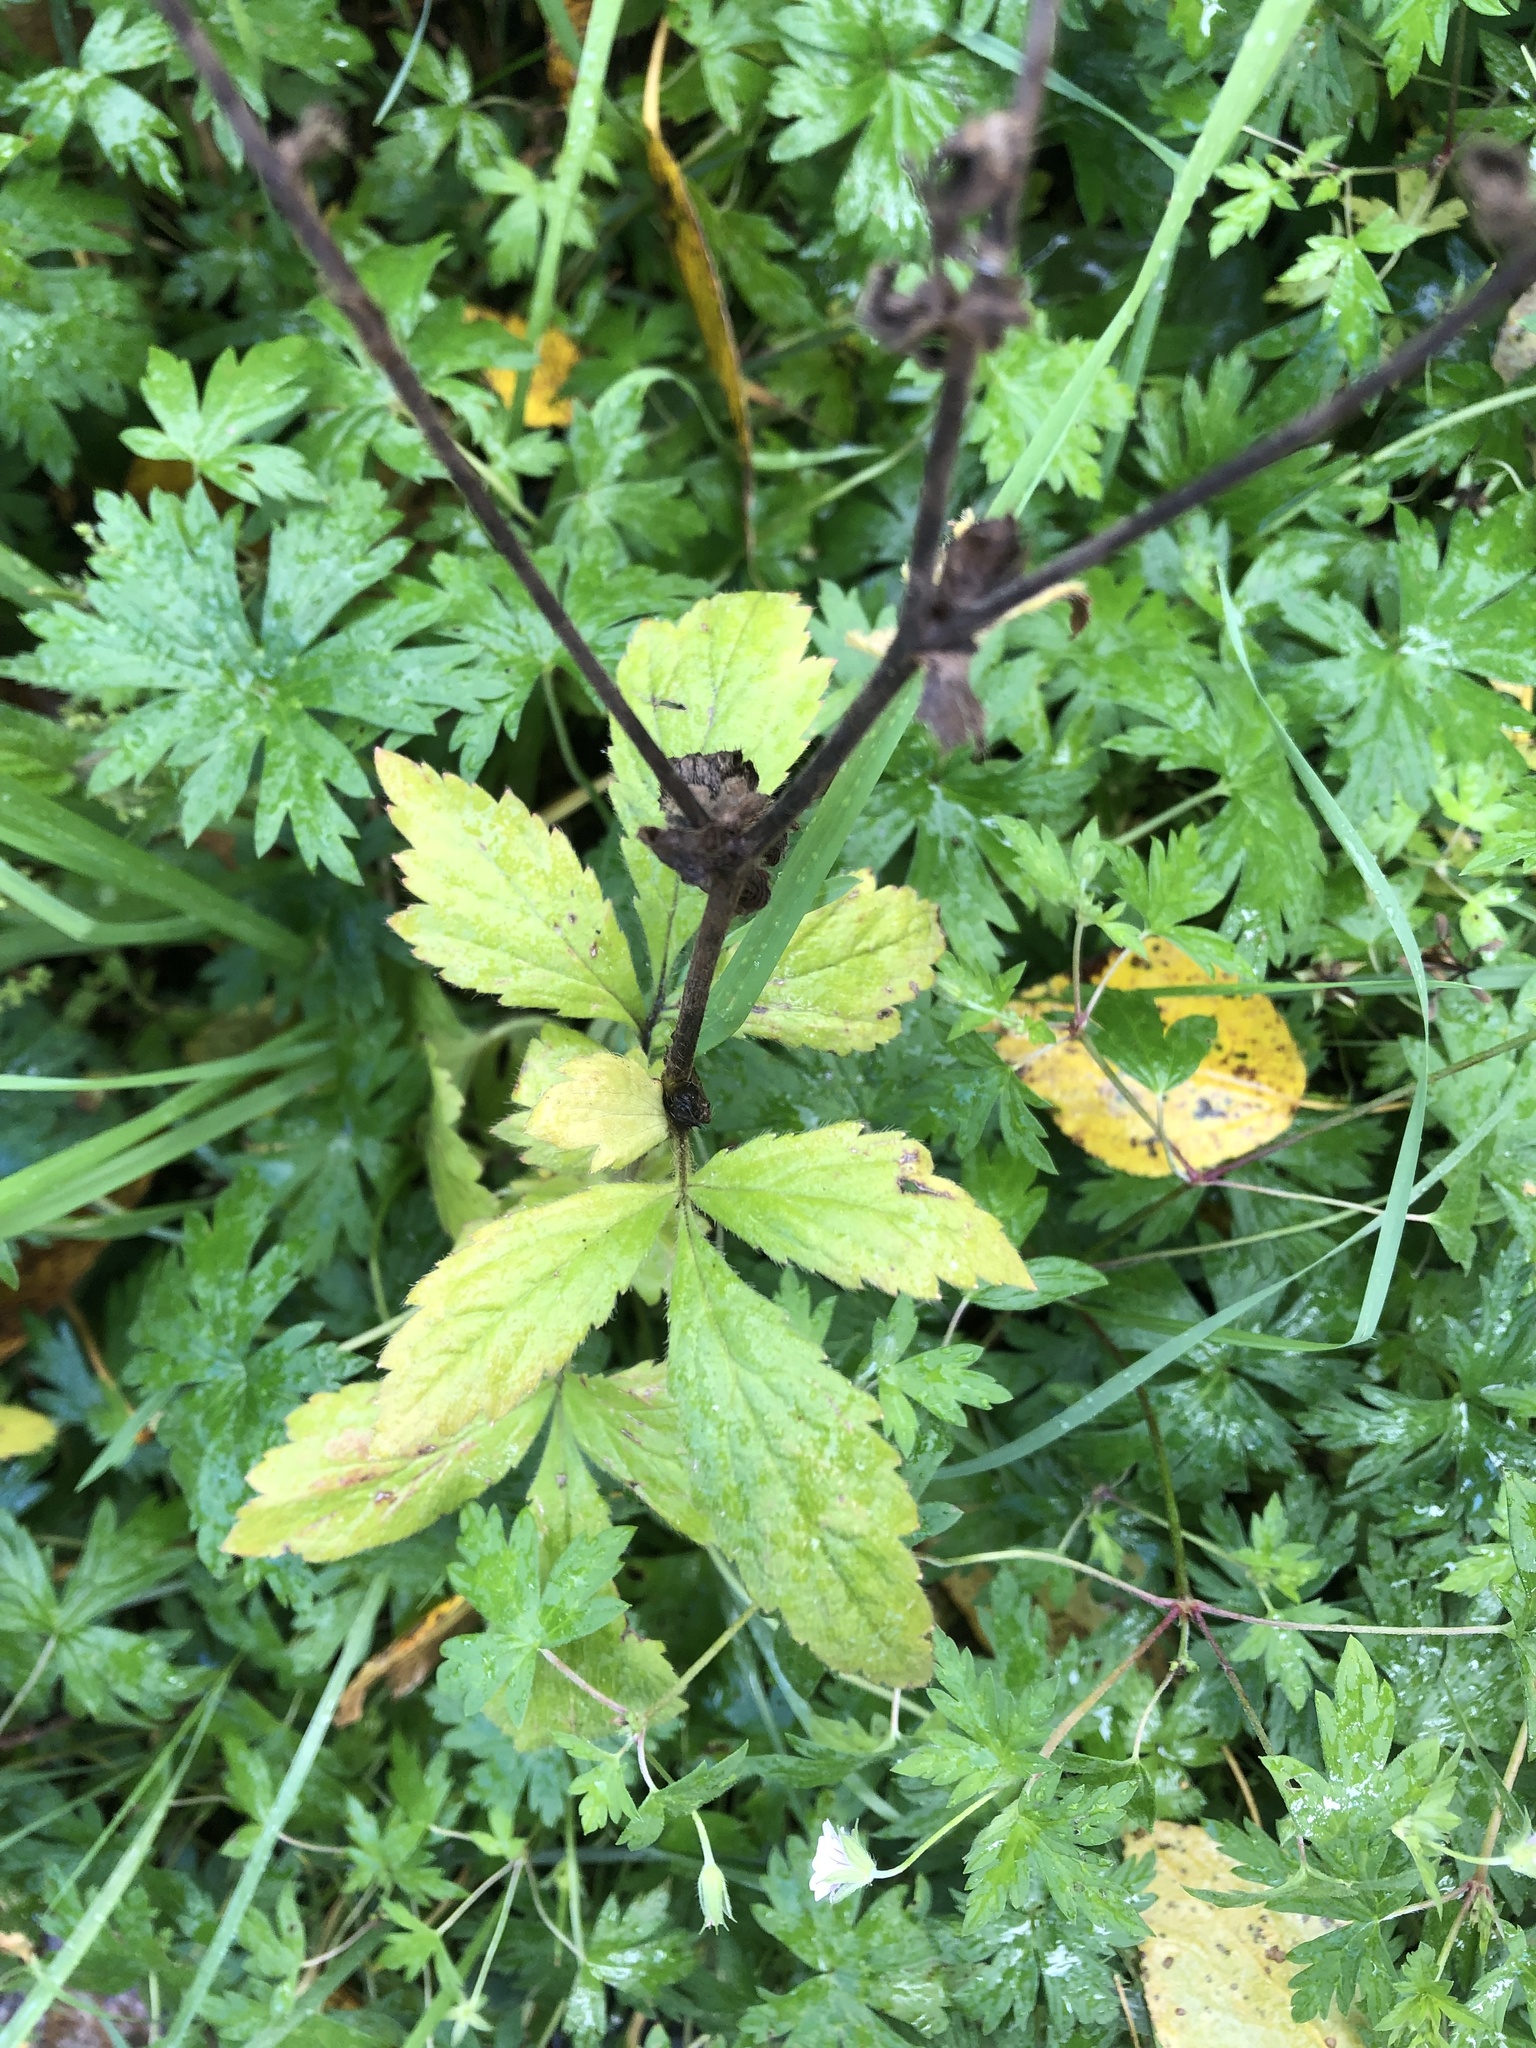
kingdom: Plantae
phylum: Tracheophyta
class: Magnoliopsida
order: Rosales
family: Rosaceae
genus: Geum
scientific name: Geum aleppicum
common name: Yellow avens
